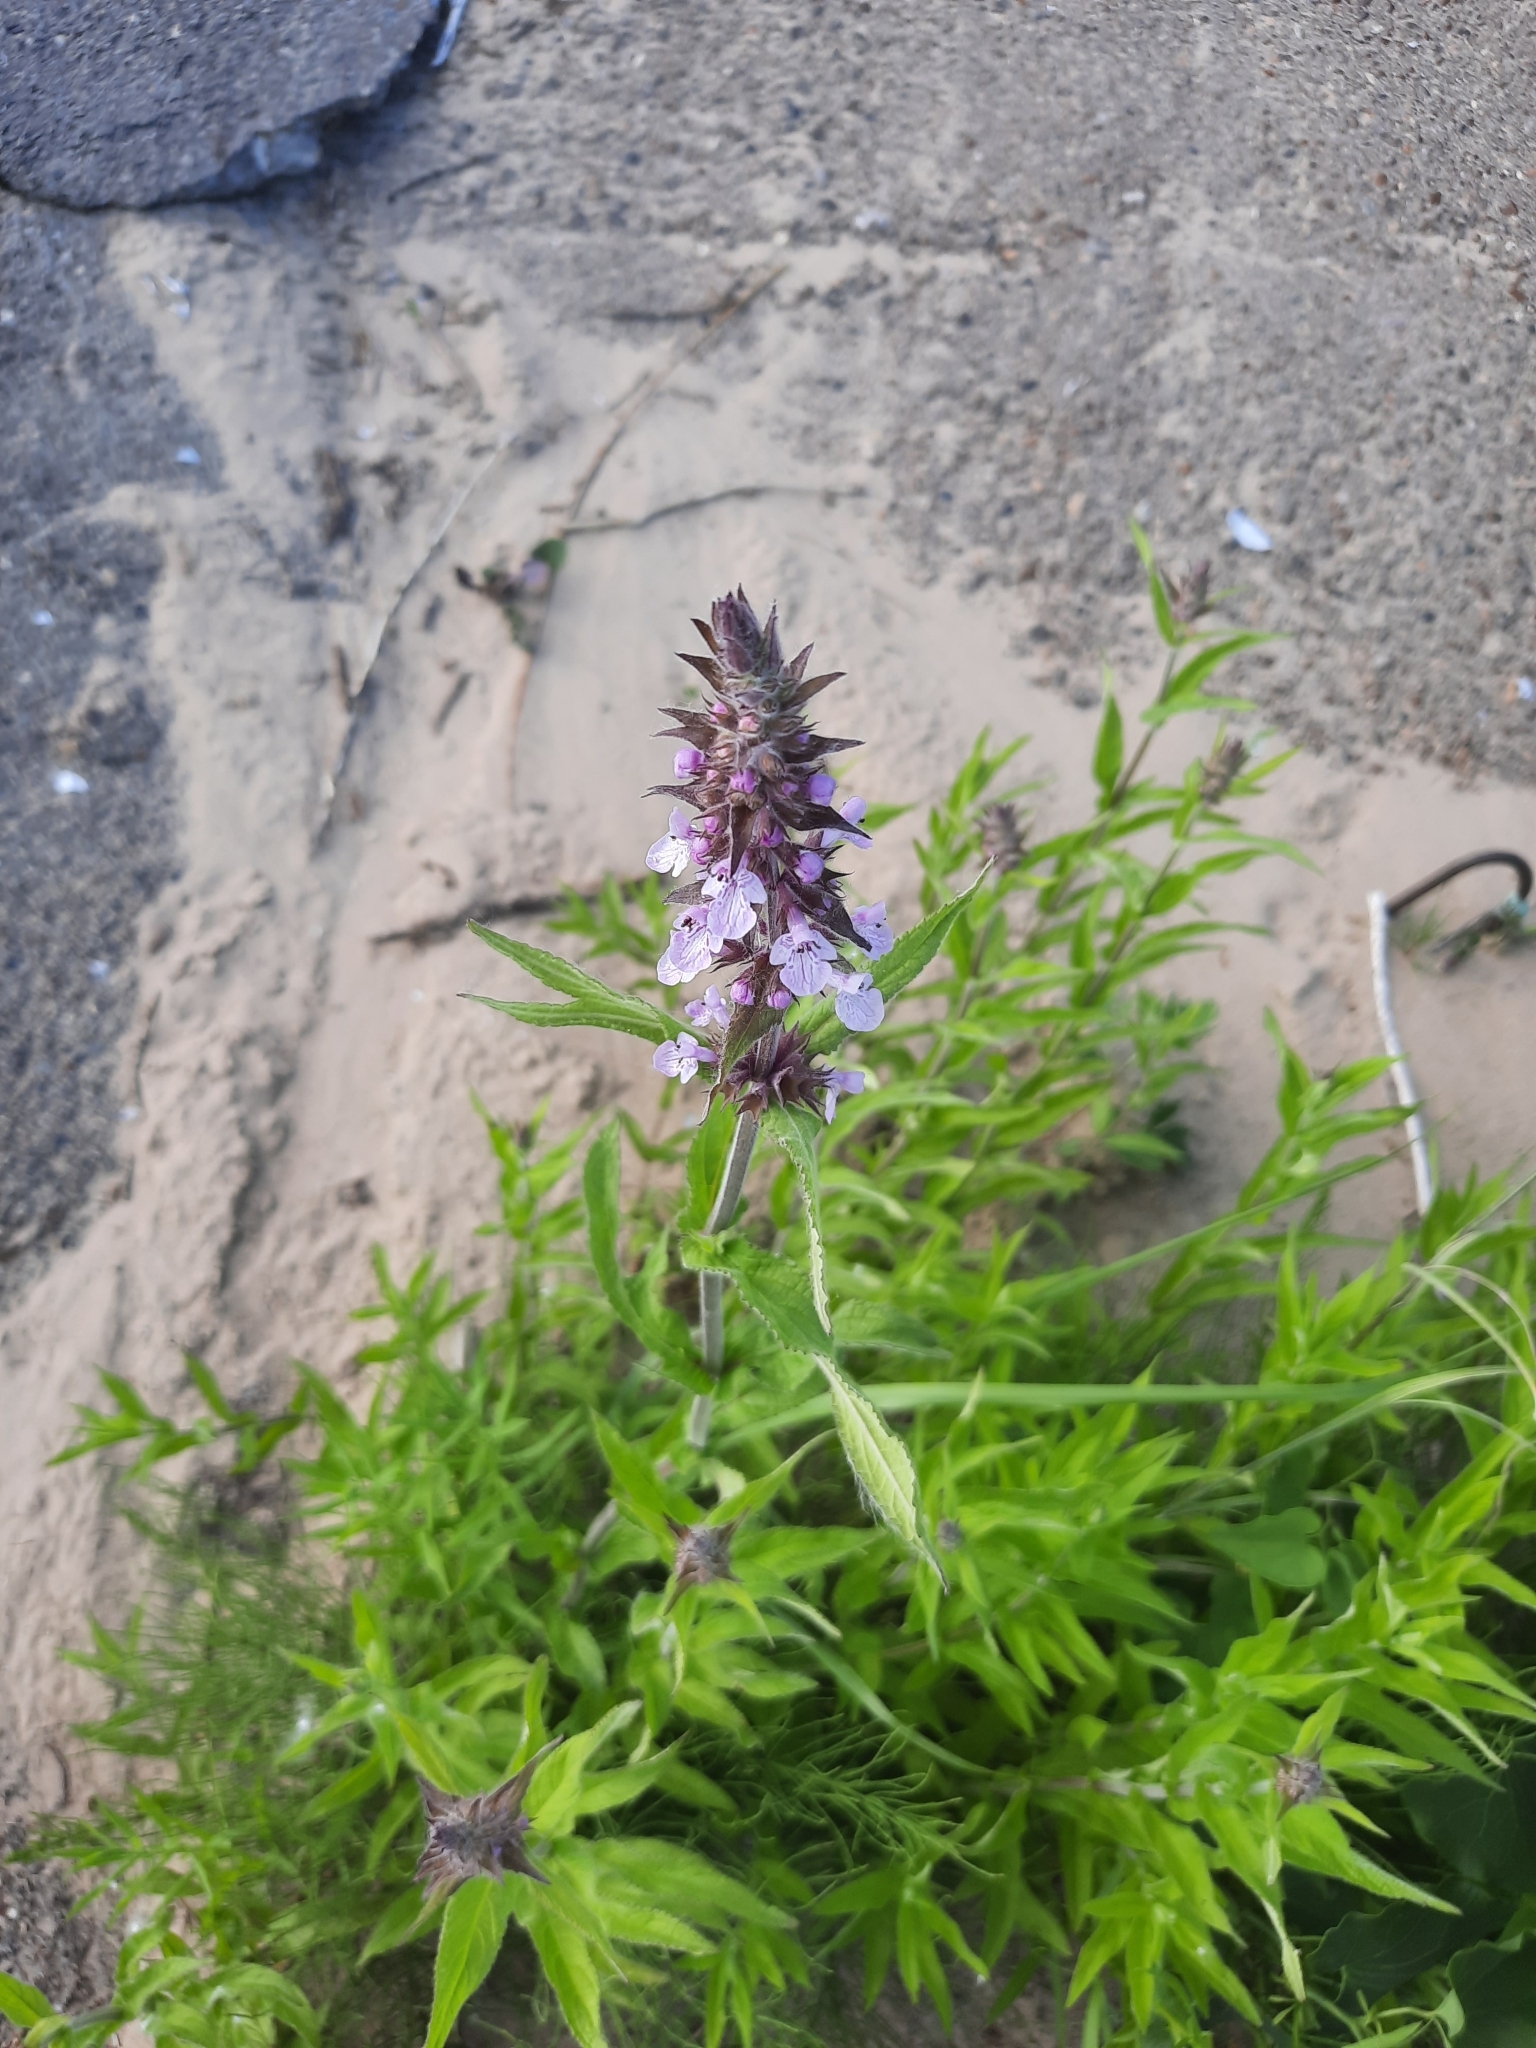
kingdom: Plantae
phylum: Tracheophyta
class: Magnoliopsida
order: Lamiales
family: Lamiaceae
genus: Stachys
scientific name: Stachys palustris
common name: Marsh woundwort
